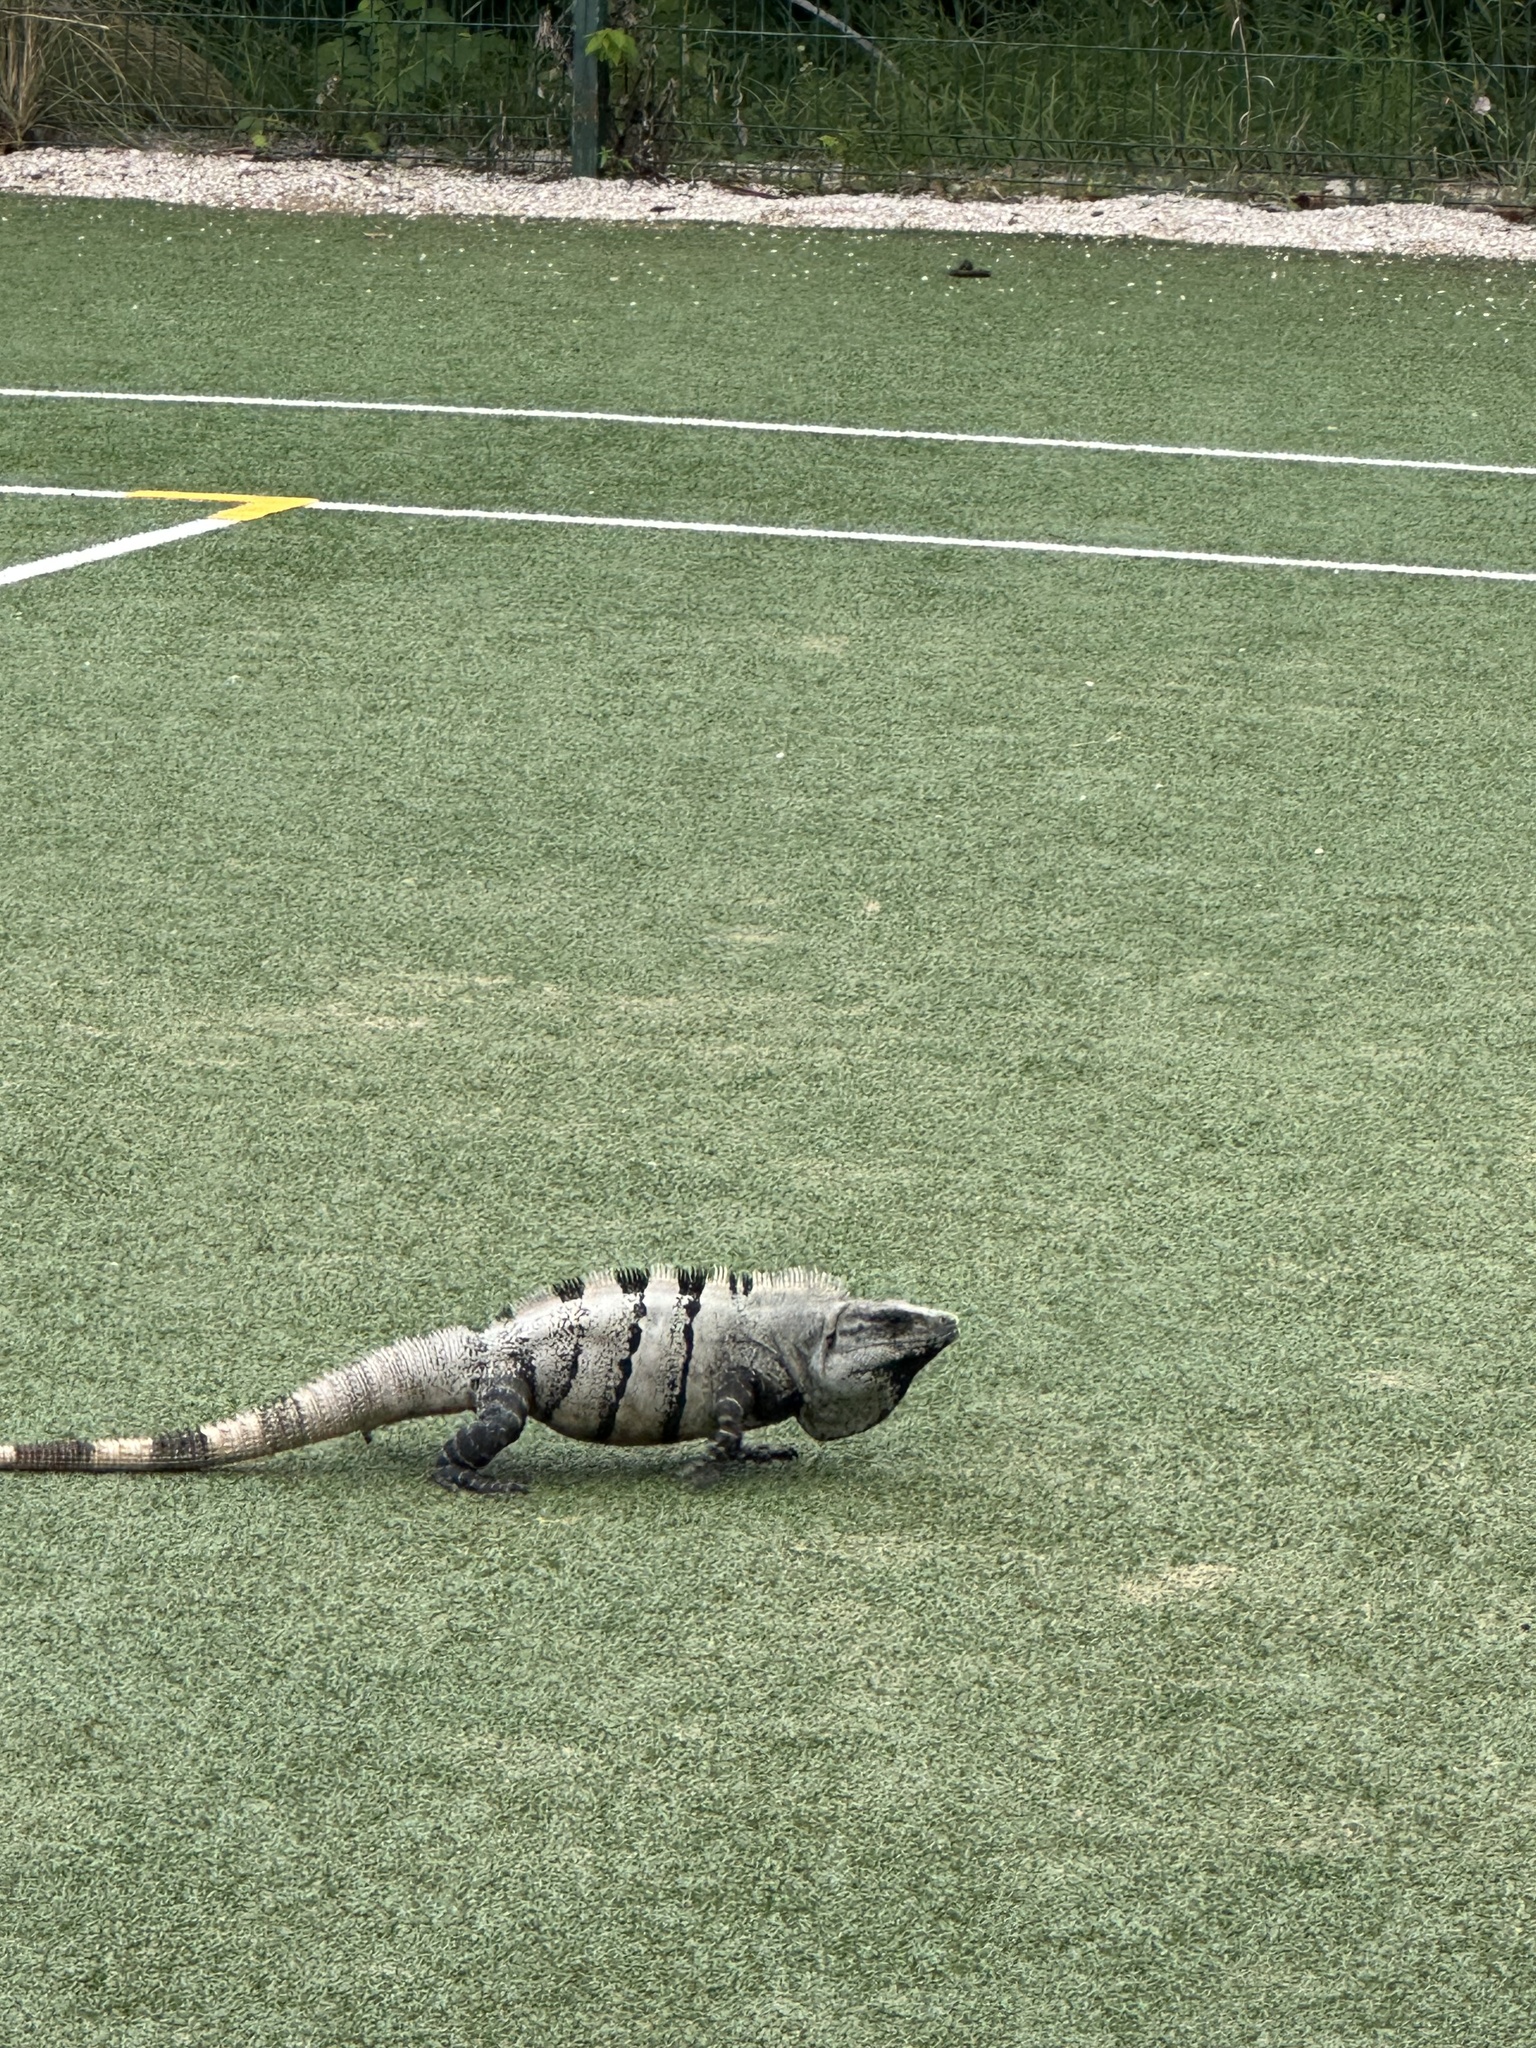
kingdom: Animalia
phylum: Chordata
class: Squamata
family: Iguanidae
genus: Ctenosaura
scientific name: Ctenosaura similis
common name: Black spiny-tailed iguana
